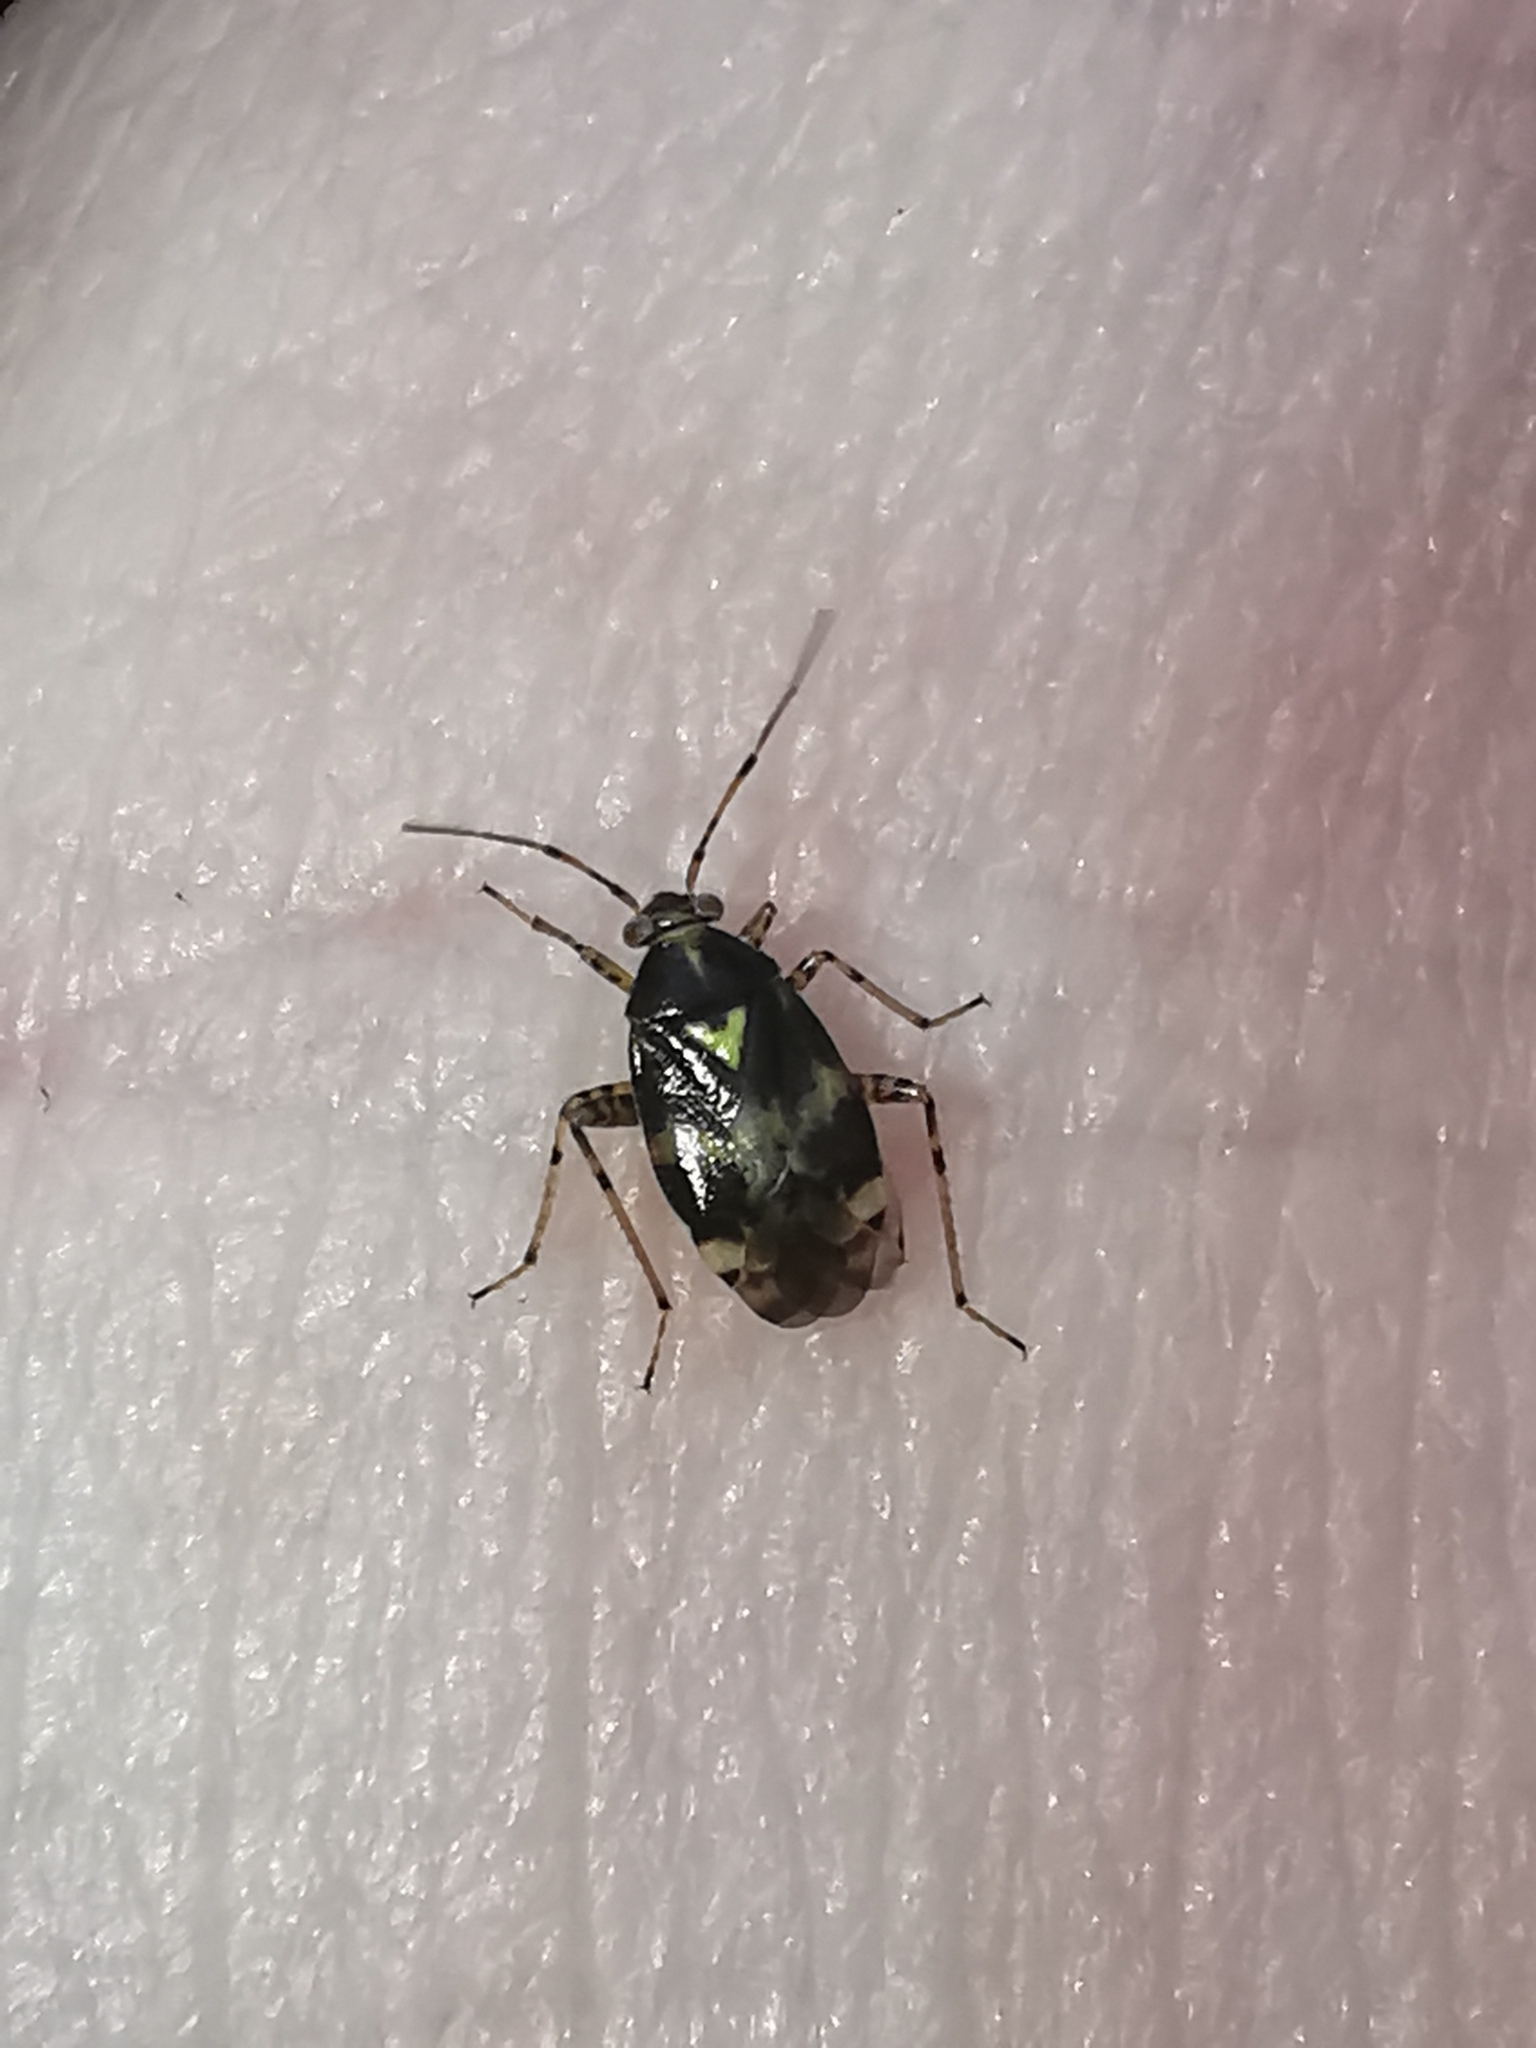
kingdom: Animalia
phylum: Arthropoda
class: Insecta
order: Hemiptera
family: Miridae
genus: Liocoris
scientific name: Liocoris tripustulatus
